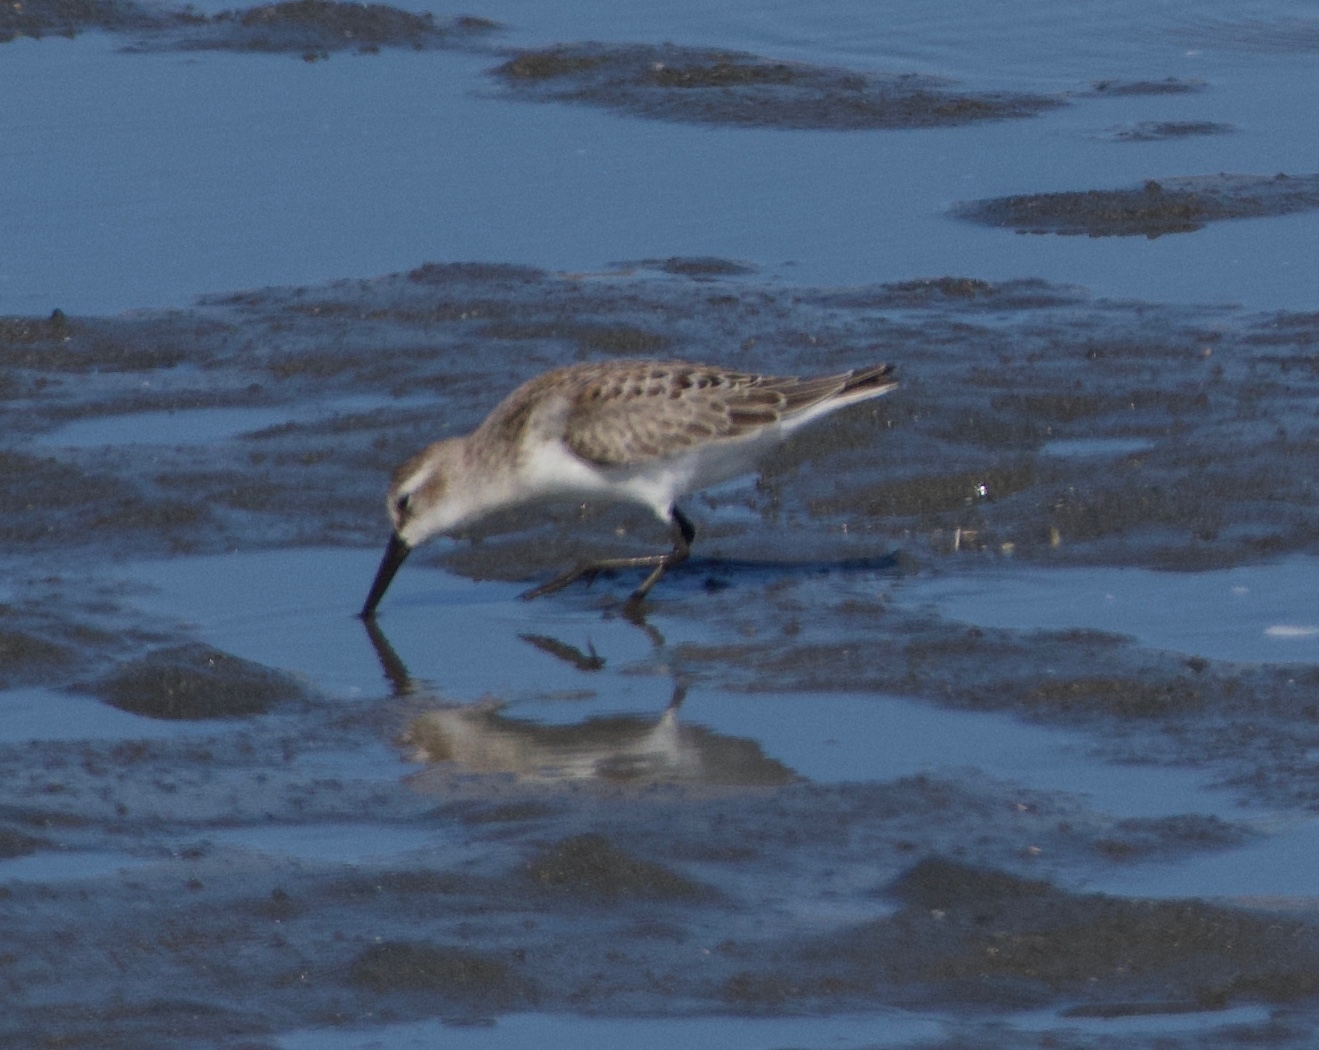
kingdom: Animalia
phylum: Chordata
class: Aves
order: Charadriiformes
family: Scolopacidae
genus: Calidris
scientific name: Calidris mauri
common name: Western sandpiper
